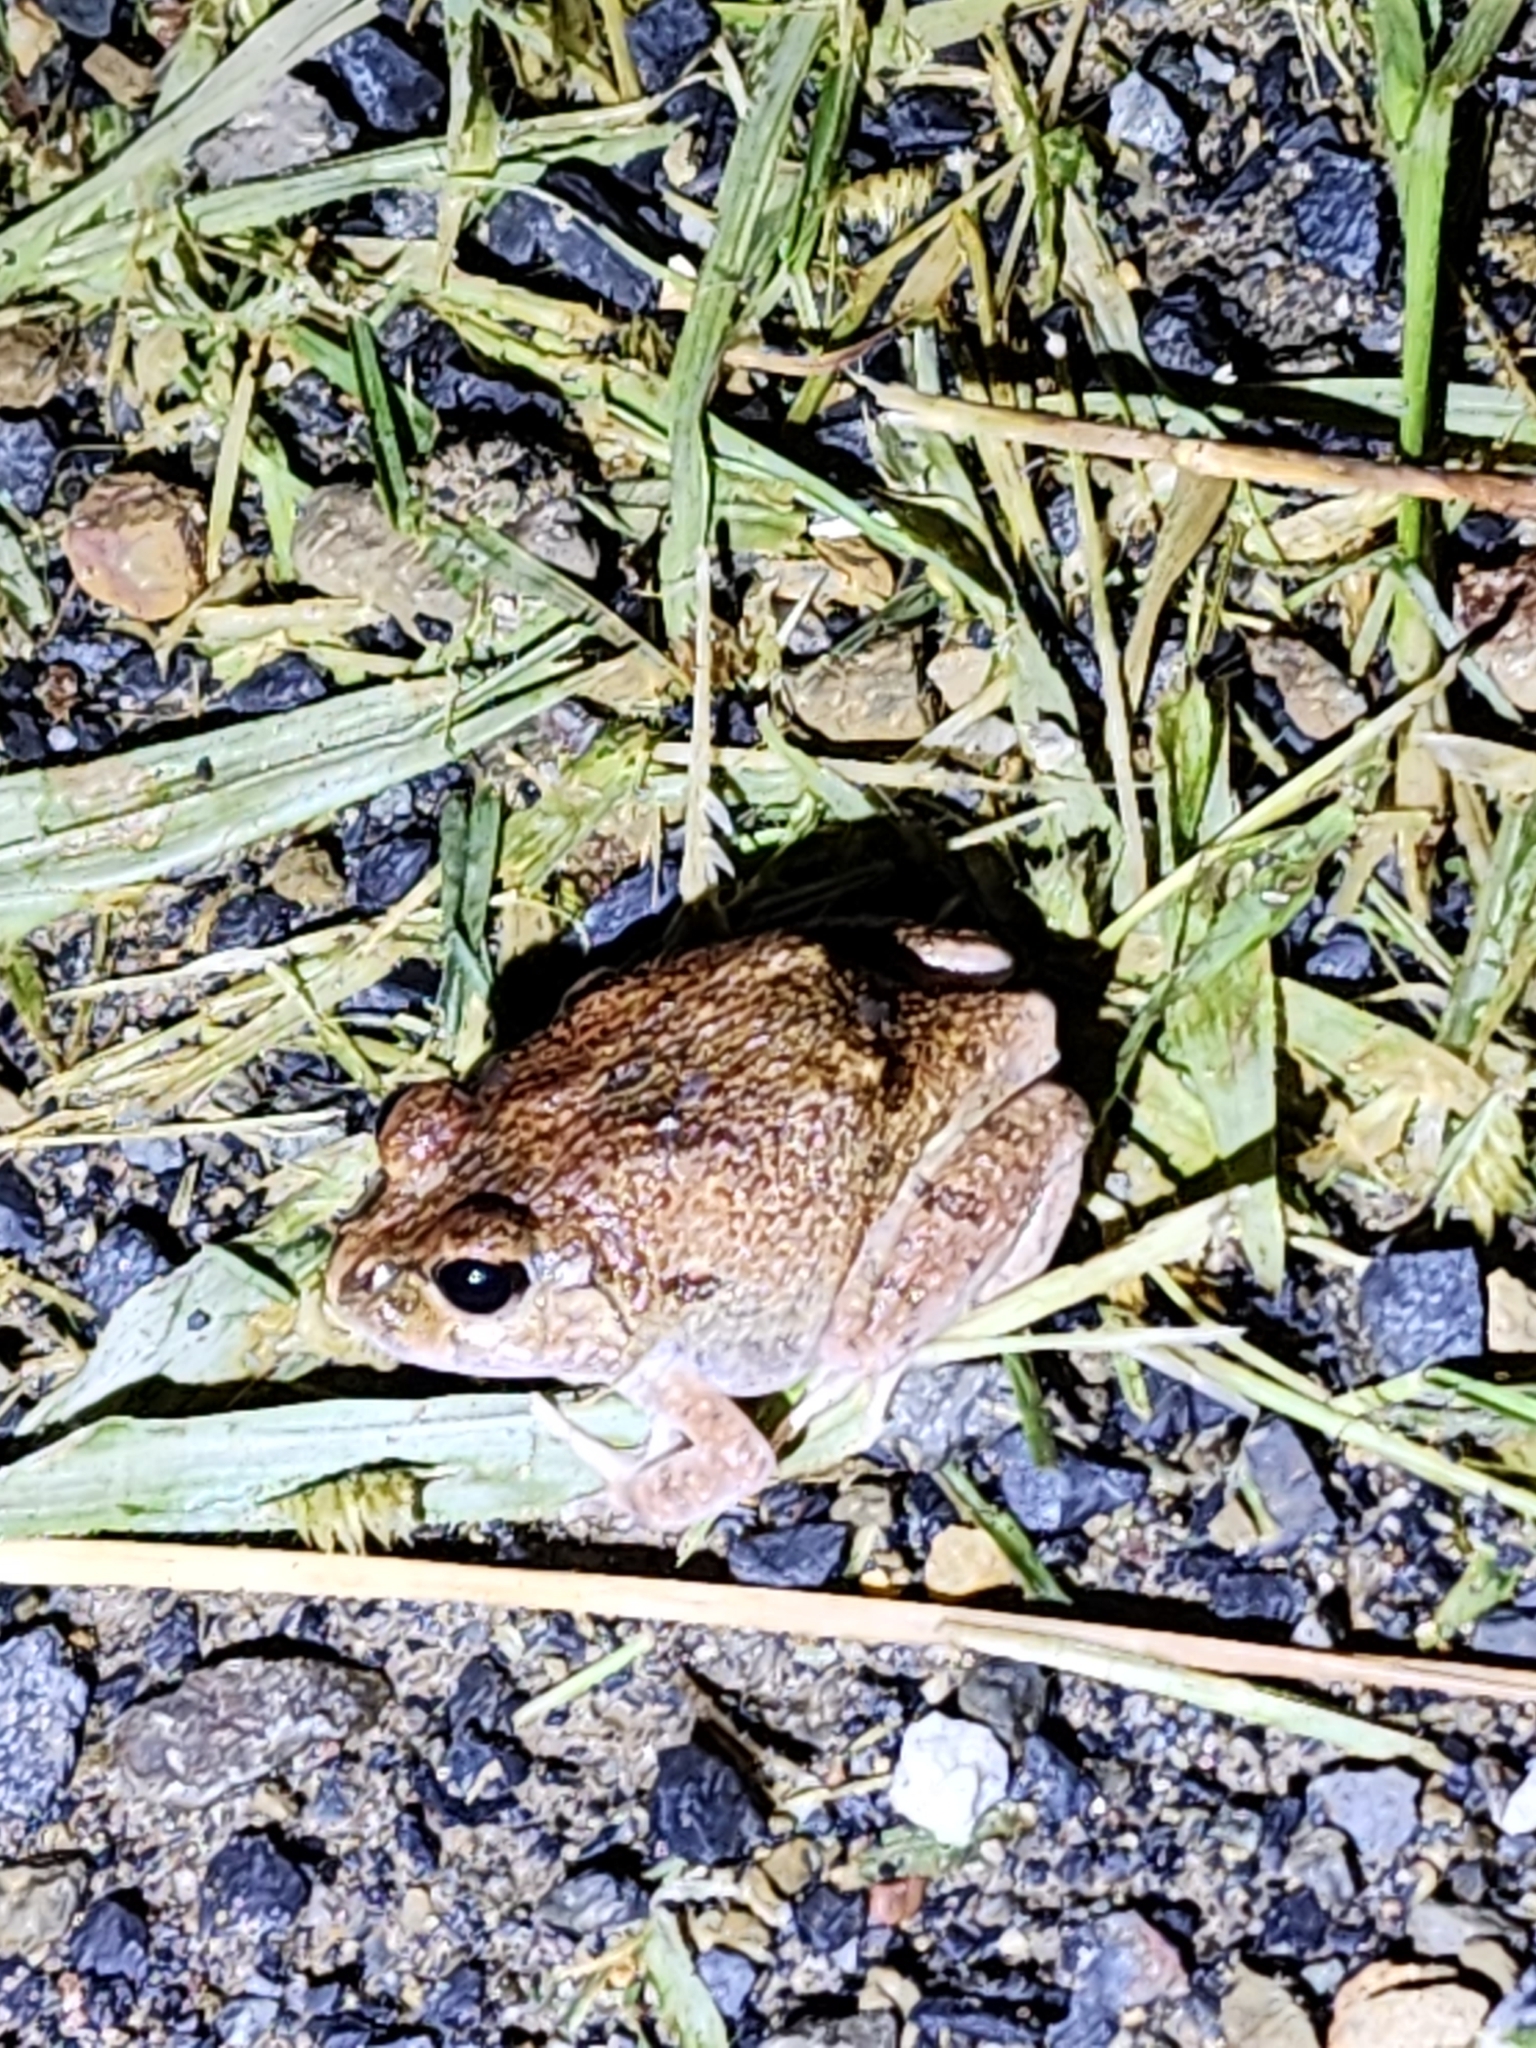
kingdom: Animalia
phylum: Chordata
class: Amphibia
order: Anura
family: Limnodynastidae
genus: Platyplectrum
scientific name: Platyplectrum ornatum
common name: Ornate burrowing frog
